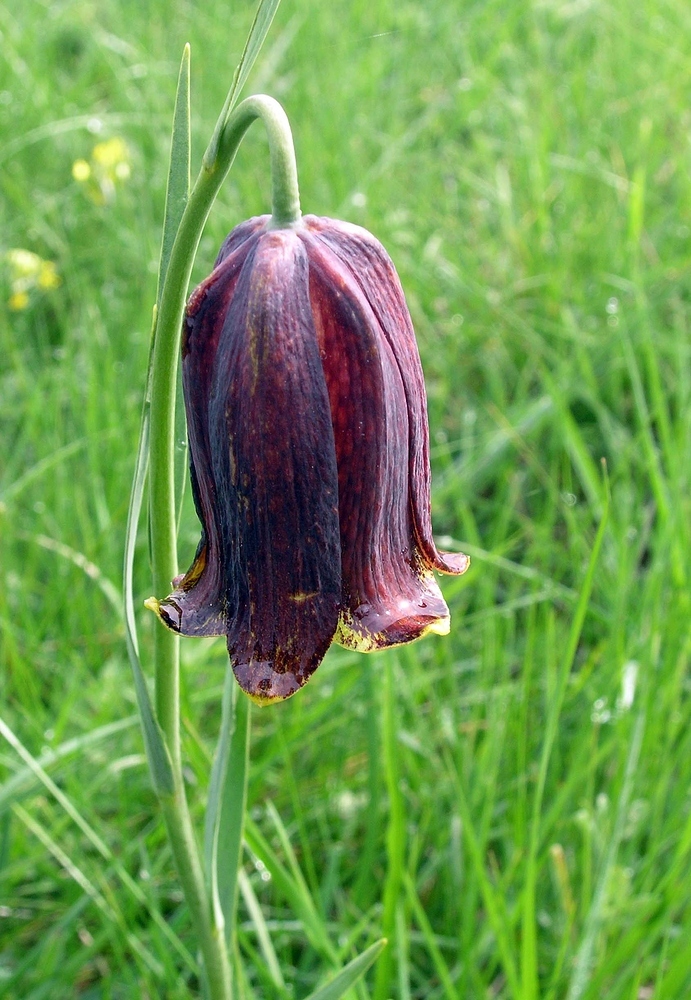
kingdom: Plantae
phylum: Tracheophyta
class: Liliopsida
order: Liliales
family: Liliaceae
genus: Fritillaria
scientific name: Fritillaria pyrenaica
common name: Pyrenean snake's-head
